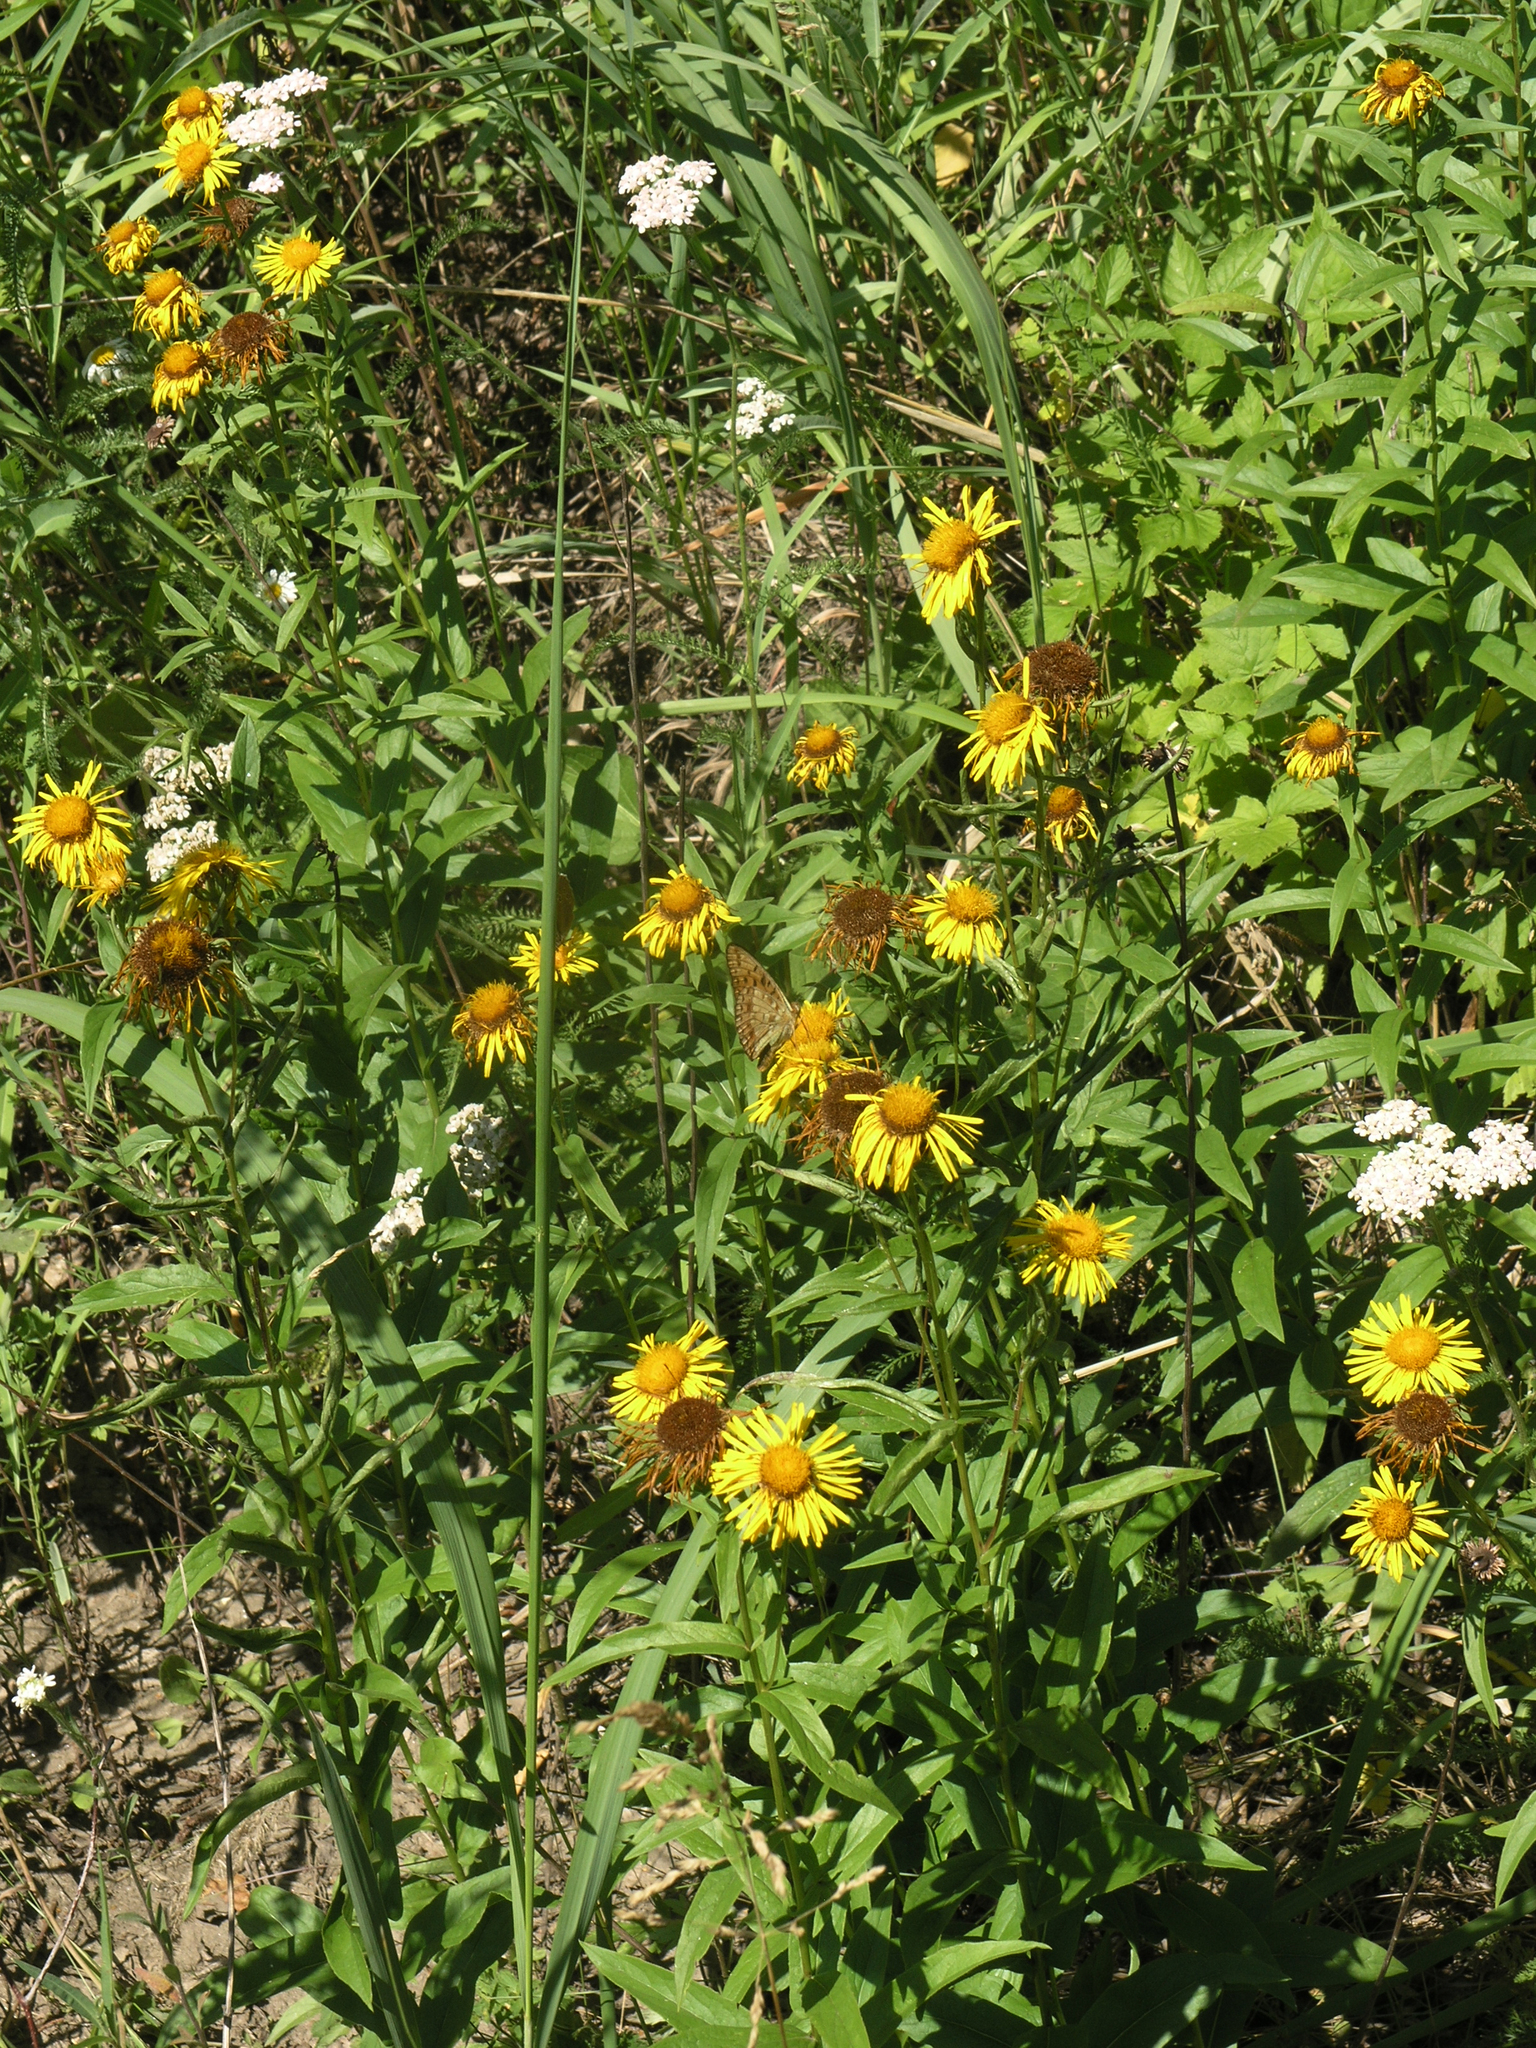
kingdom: Plantae
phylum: Tracheophyta
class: Magnoliopsida
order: Asterales
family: Asteraceae
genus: Pentanema
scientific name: Pentanema salicinum
